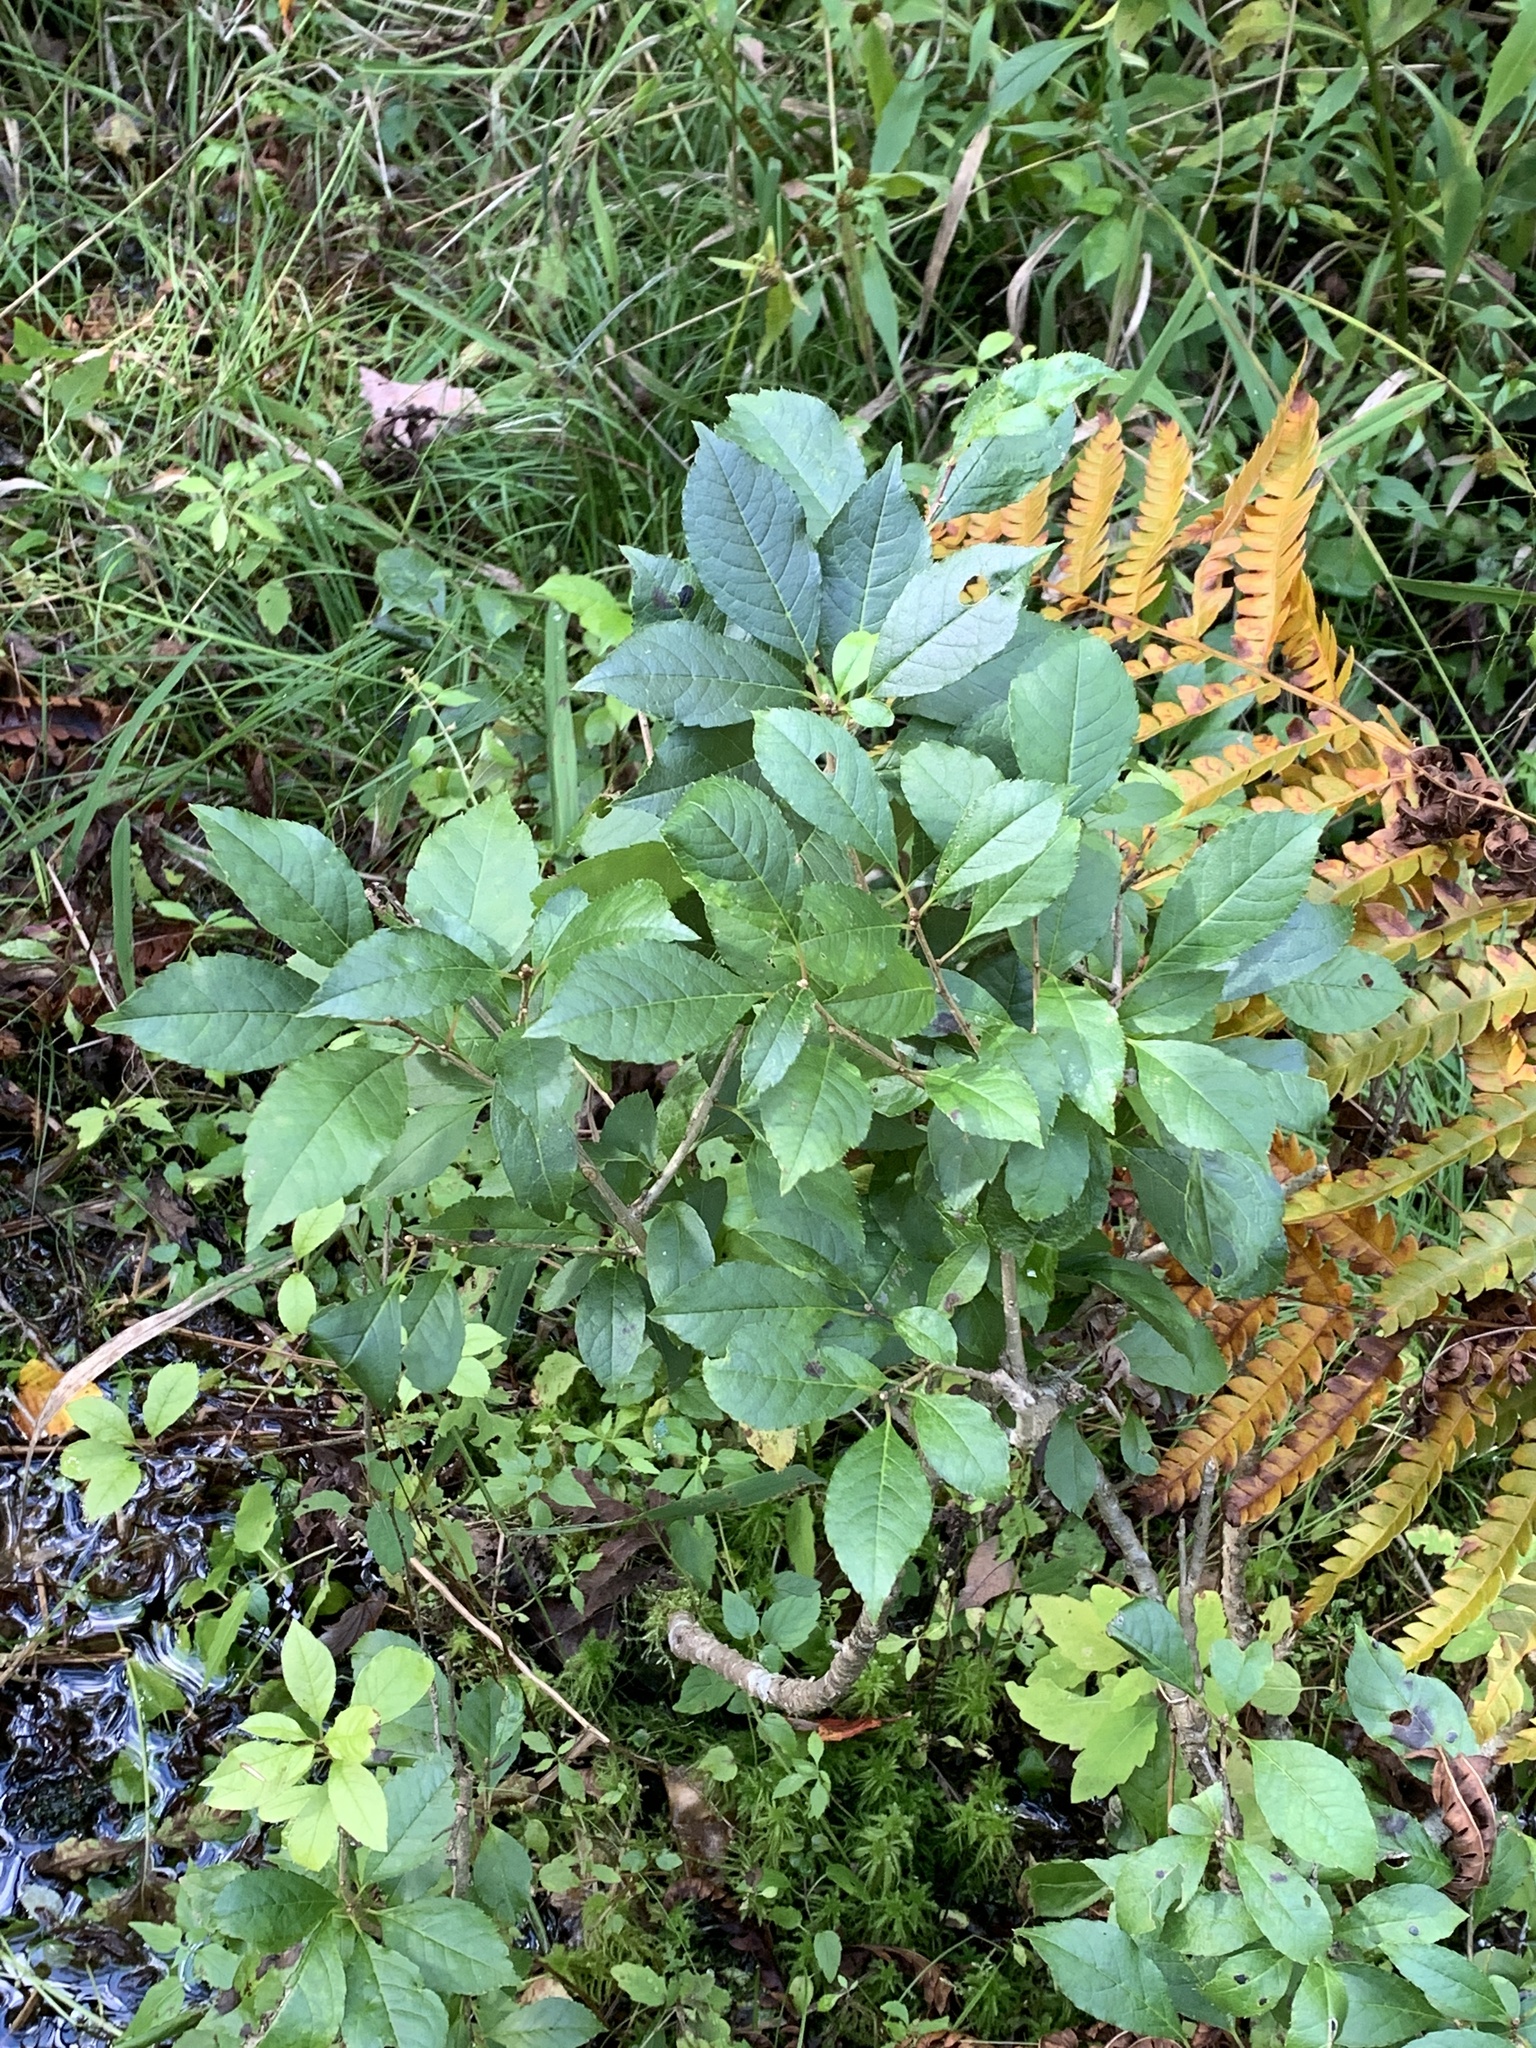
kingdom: Plantae
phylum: Tracheophyta
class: Magnoliopsida
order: Aquifoliales
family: Aquifoliaceae
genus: Ilex
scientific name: Ilex verticillata
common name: Virginia winterberry
